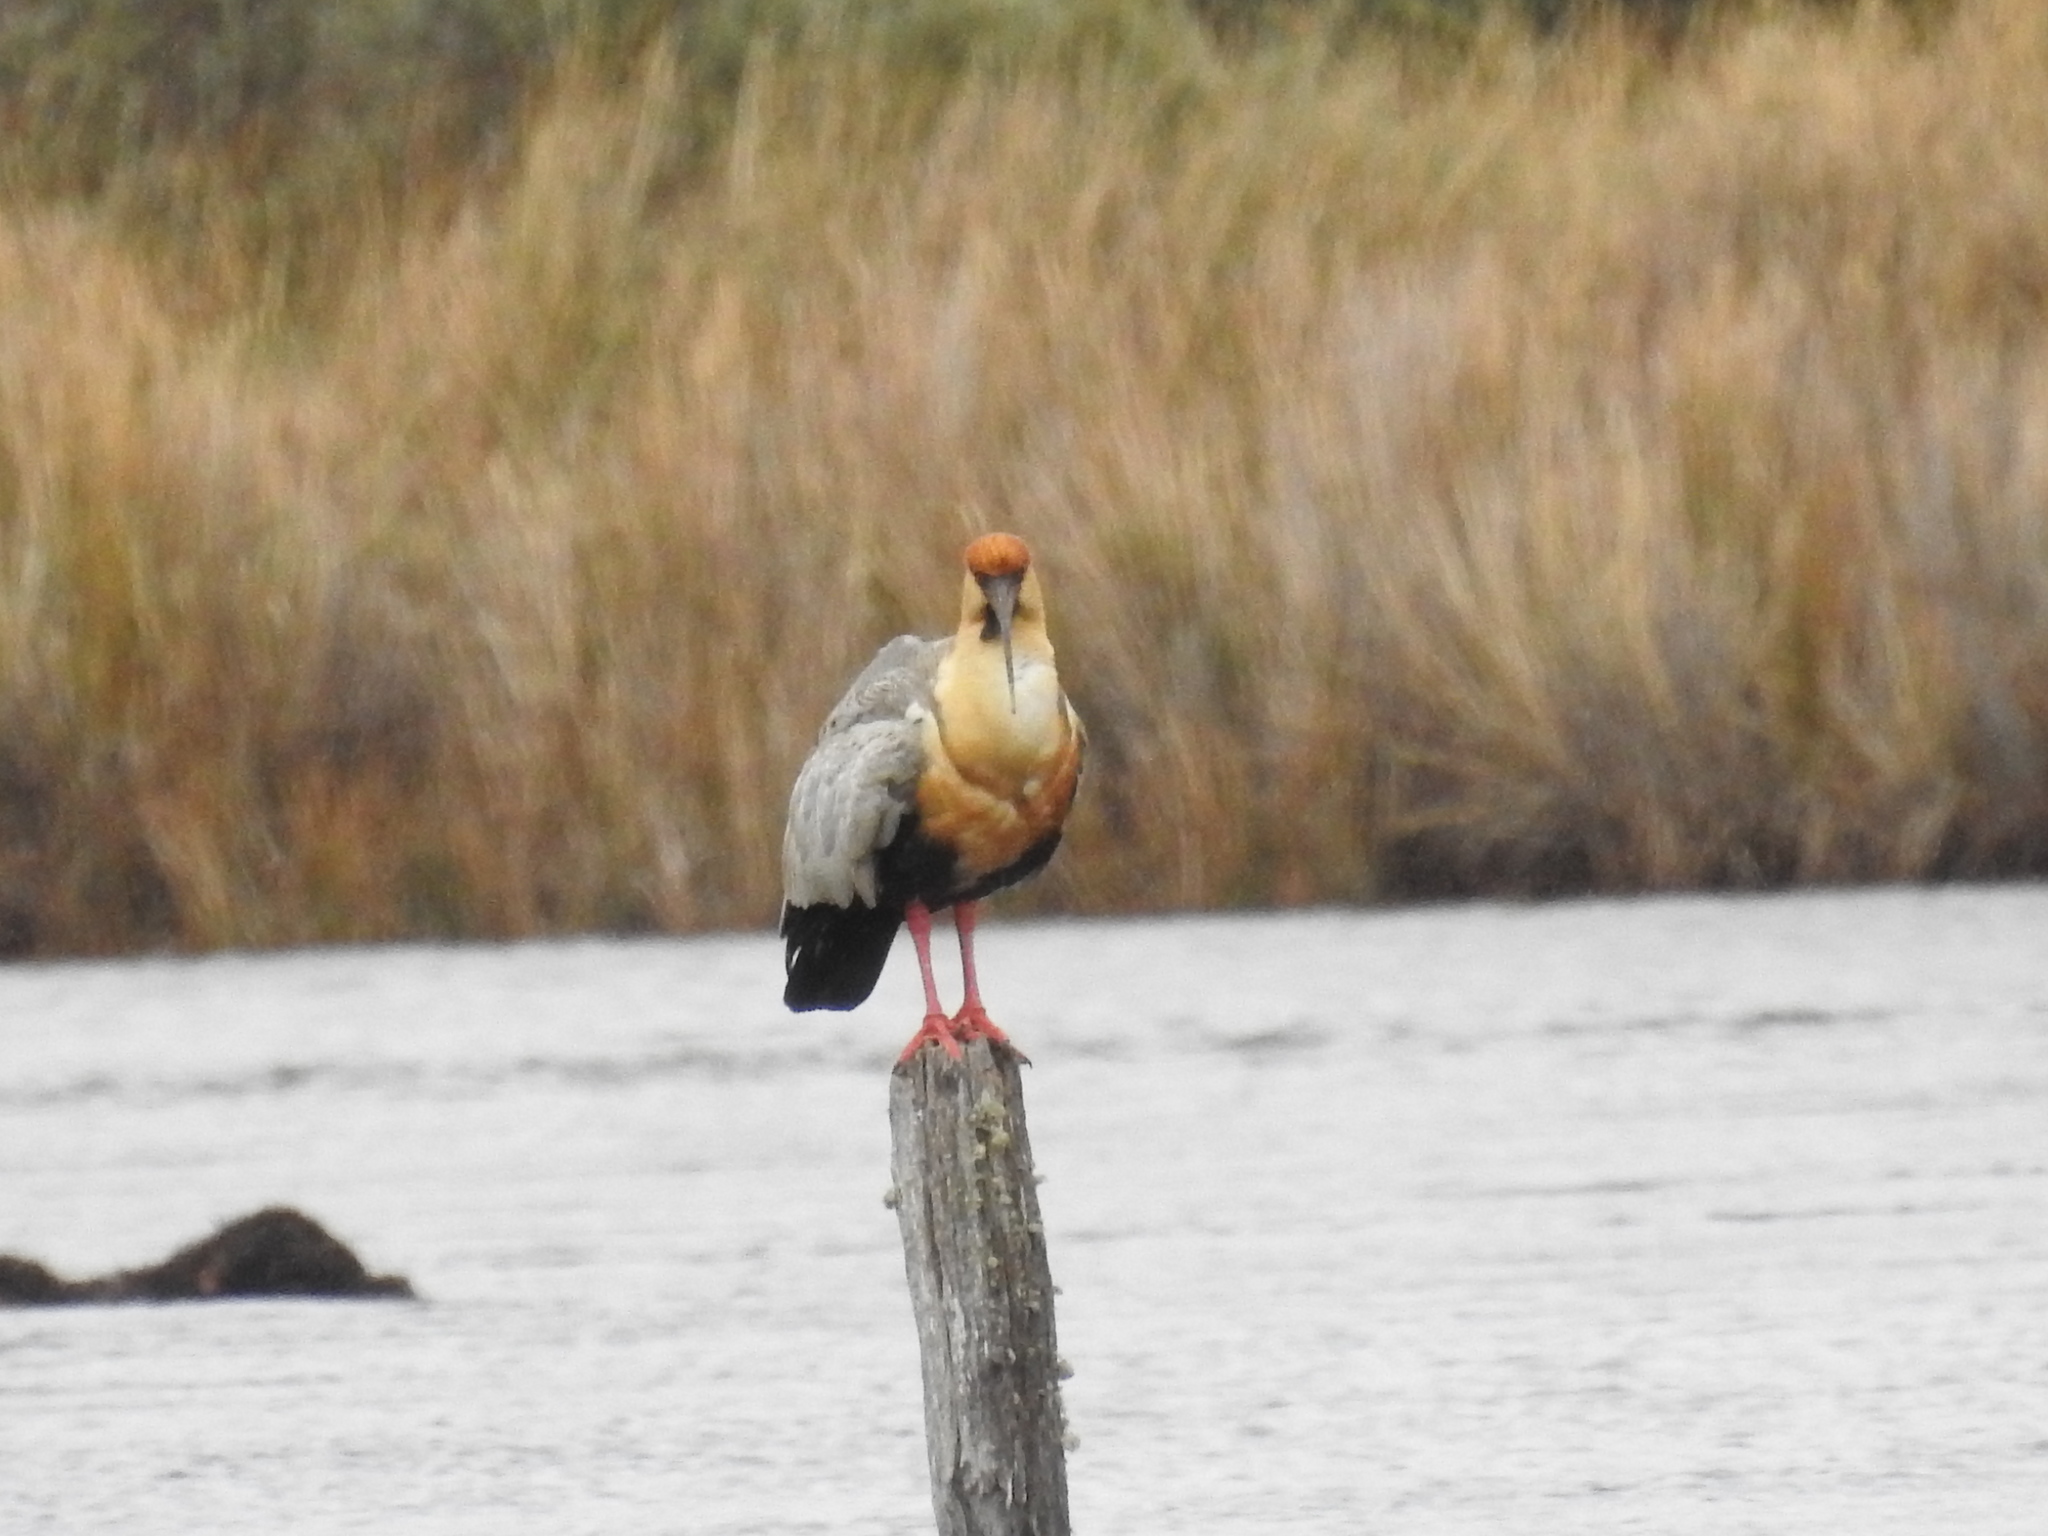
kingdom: Animalia
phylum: Chordata
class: Aves
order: Pelecaniformes
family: Threskiornithidae
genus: Theristicus
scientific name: Theristicus melanopis
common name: Black-faced ibis
